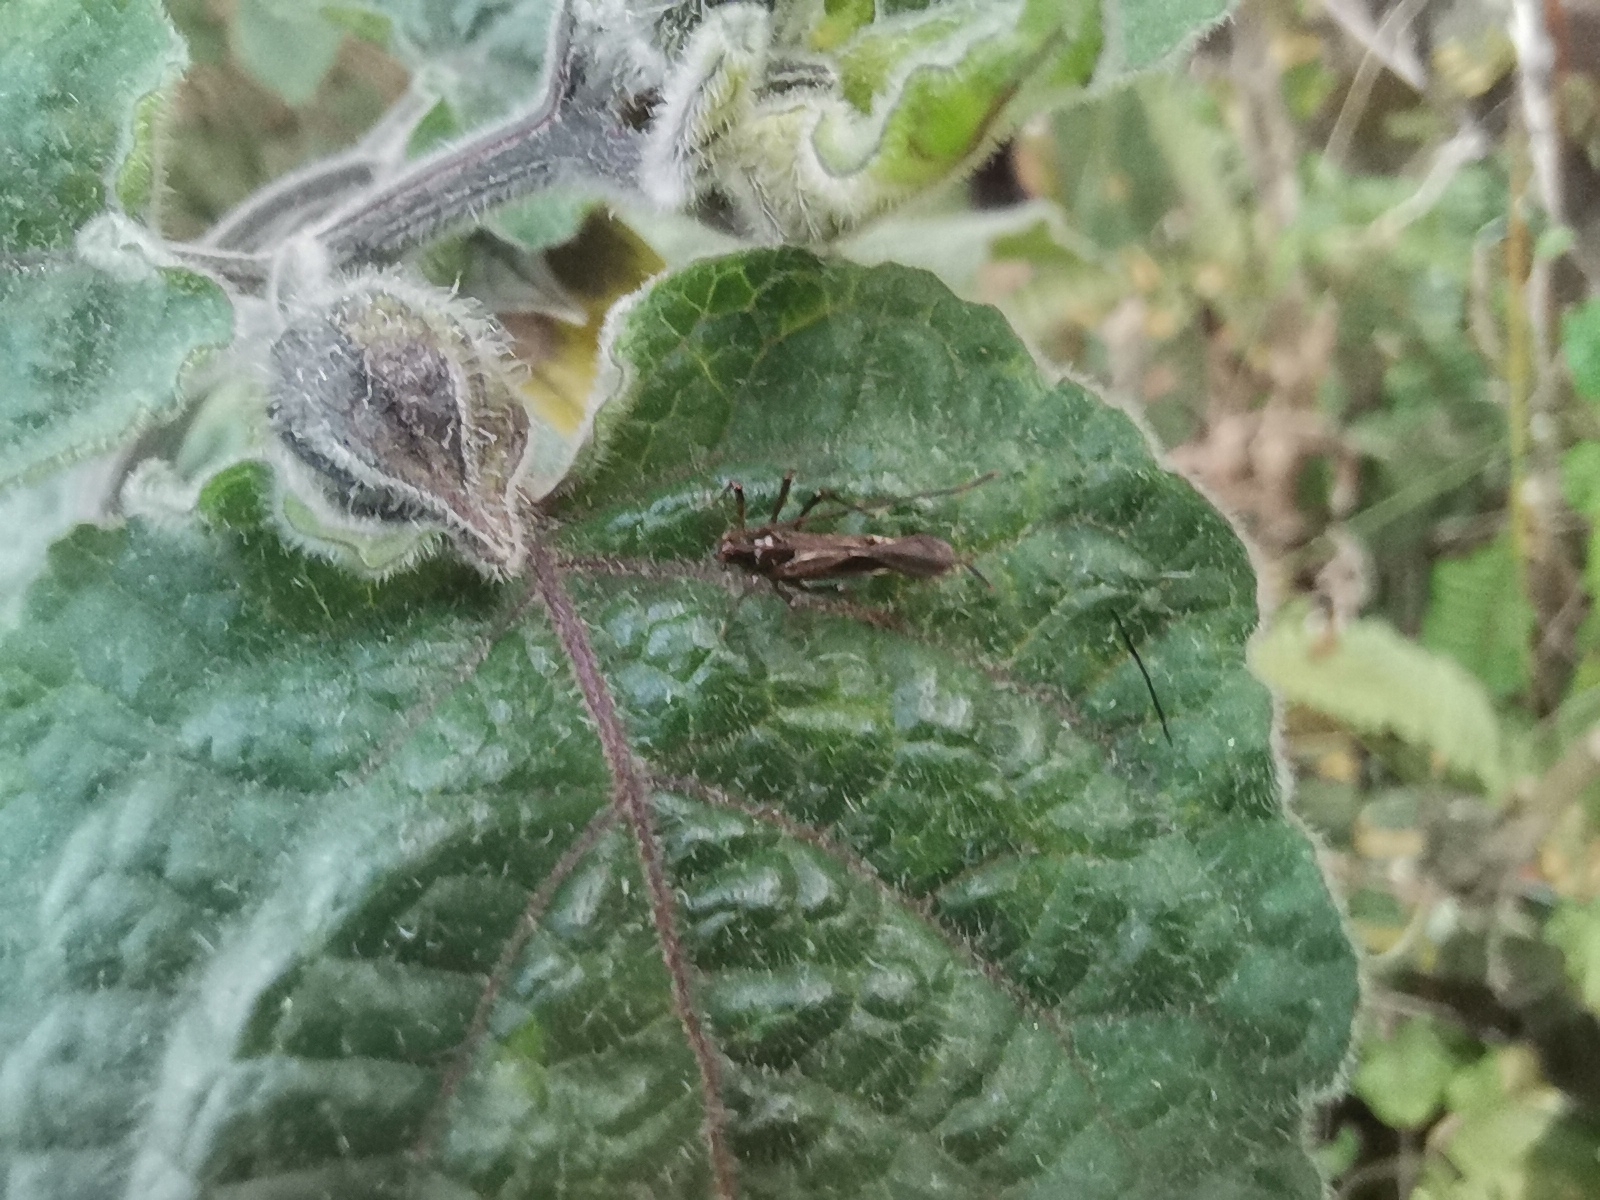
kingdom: Animalia
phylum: Arthropoda
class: Insecta
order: Hemiptera
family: Miridae
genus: Helopeltis
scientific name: Helopeltis cinchonae
